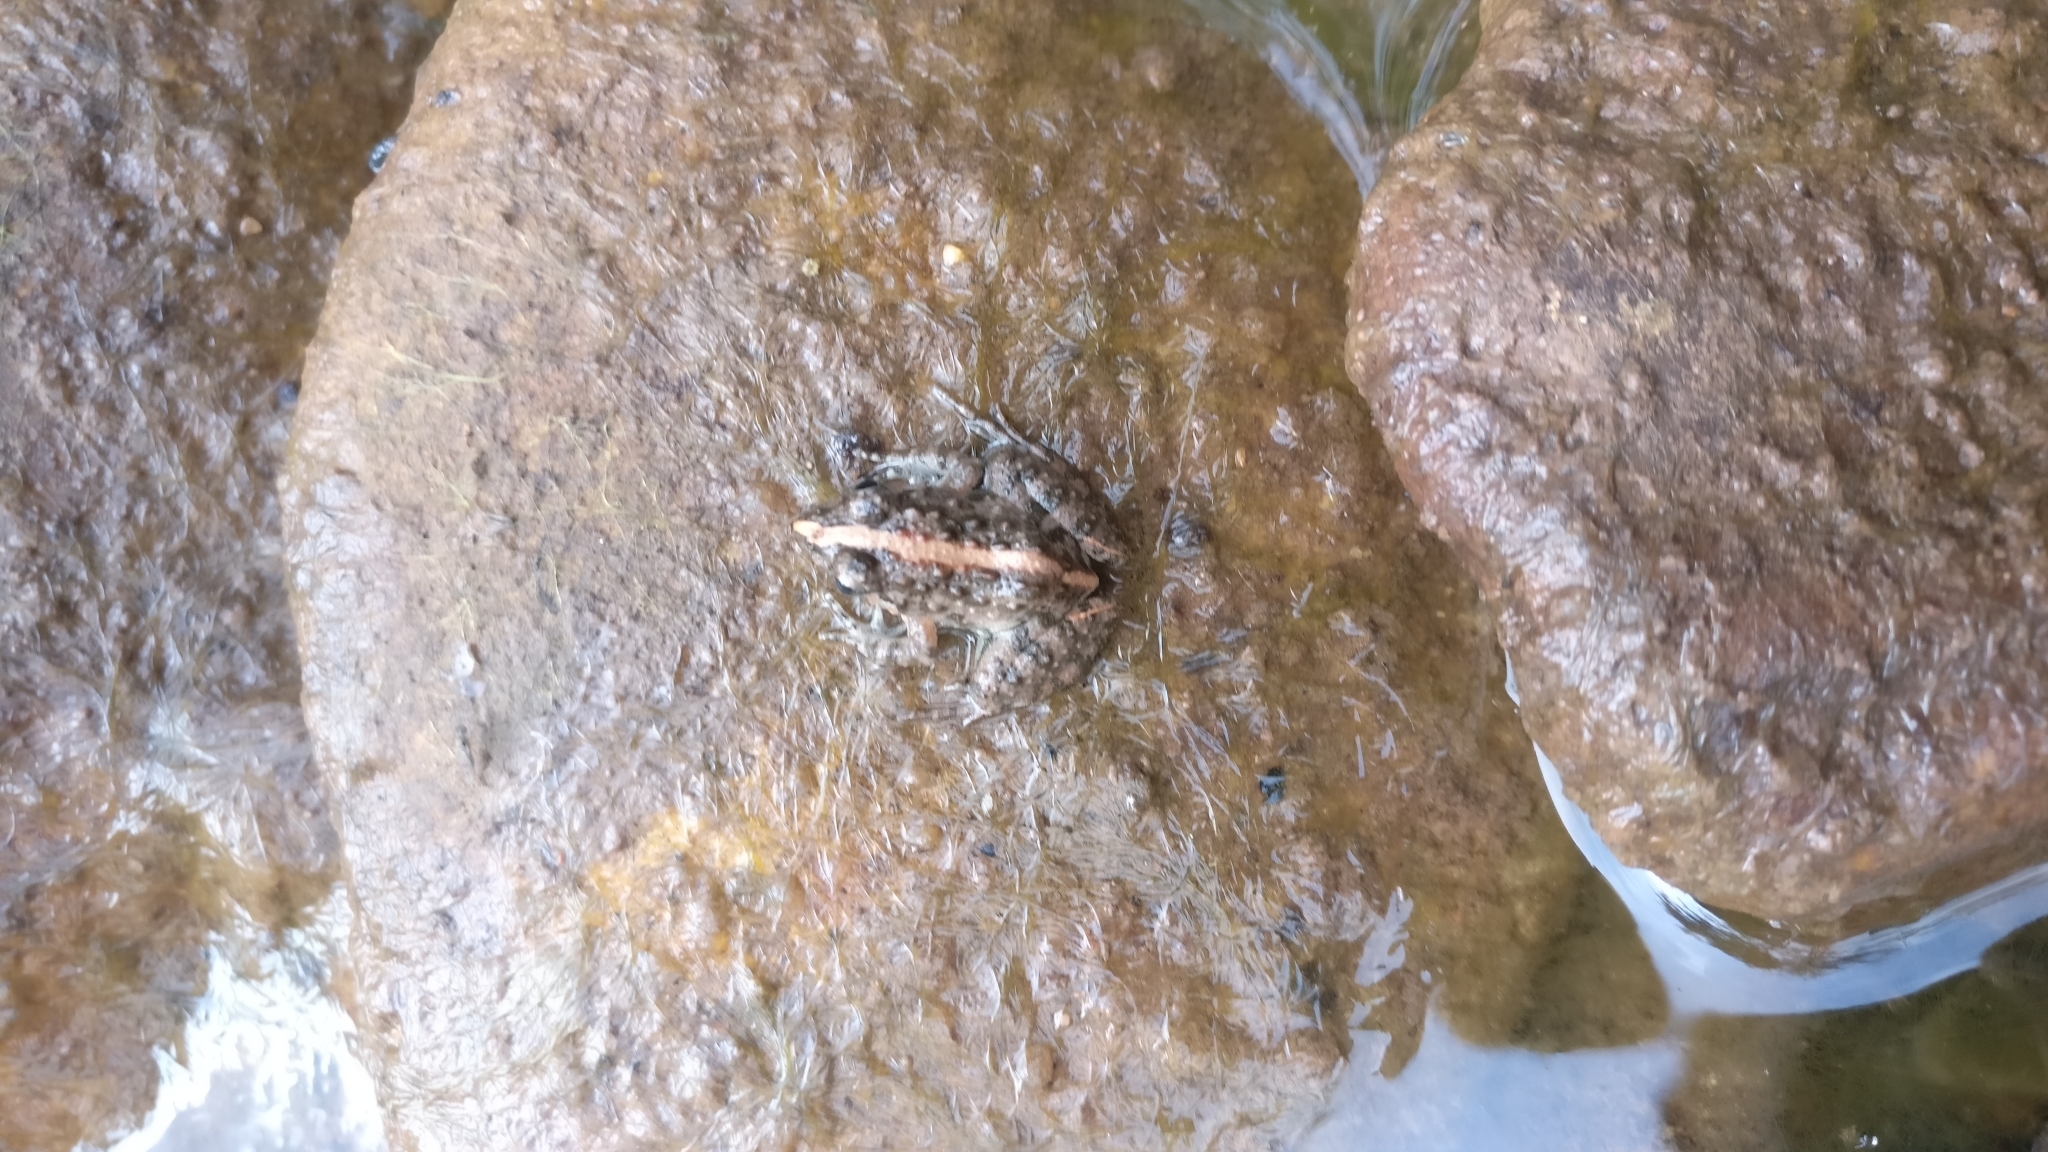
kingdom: Animalia
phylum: Chordata
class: Amphibia
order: Anura
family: Dicroglossidae
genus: Minervarya
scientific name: Minervarya agricola
